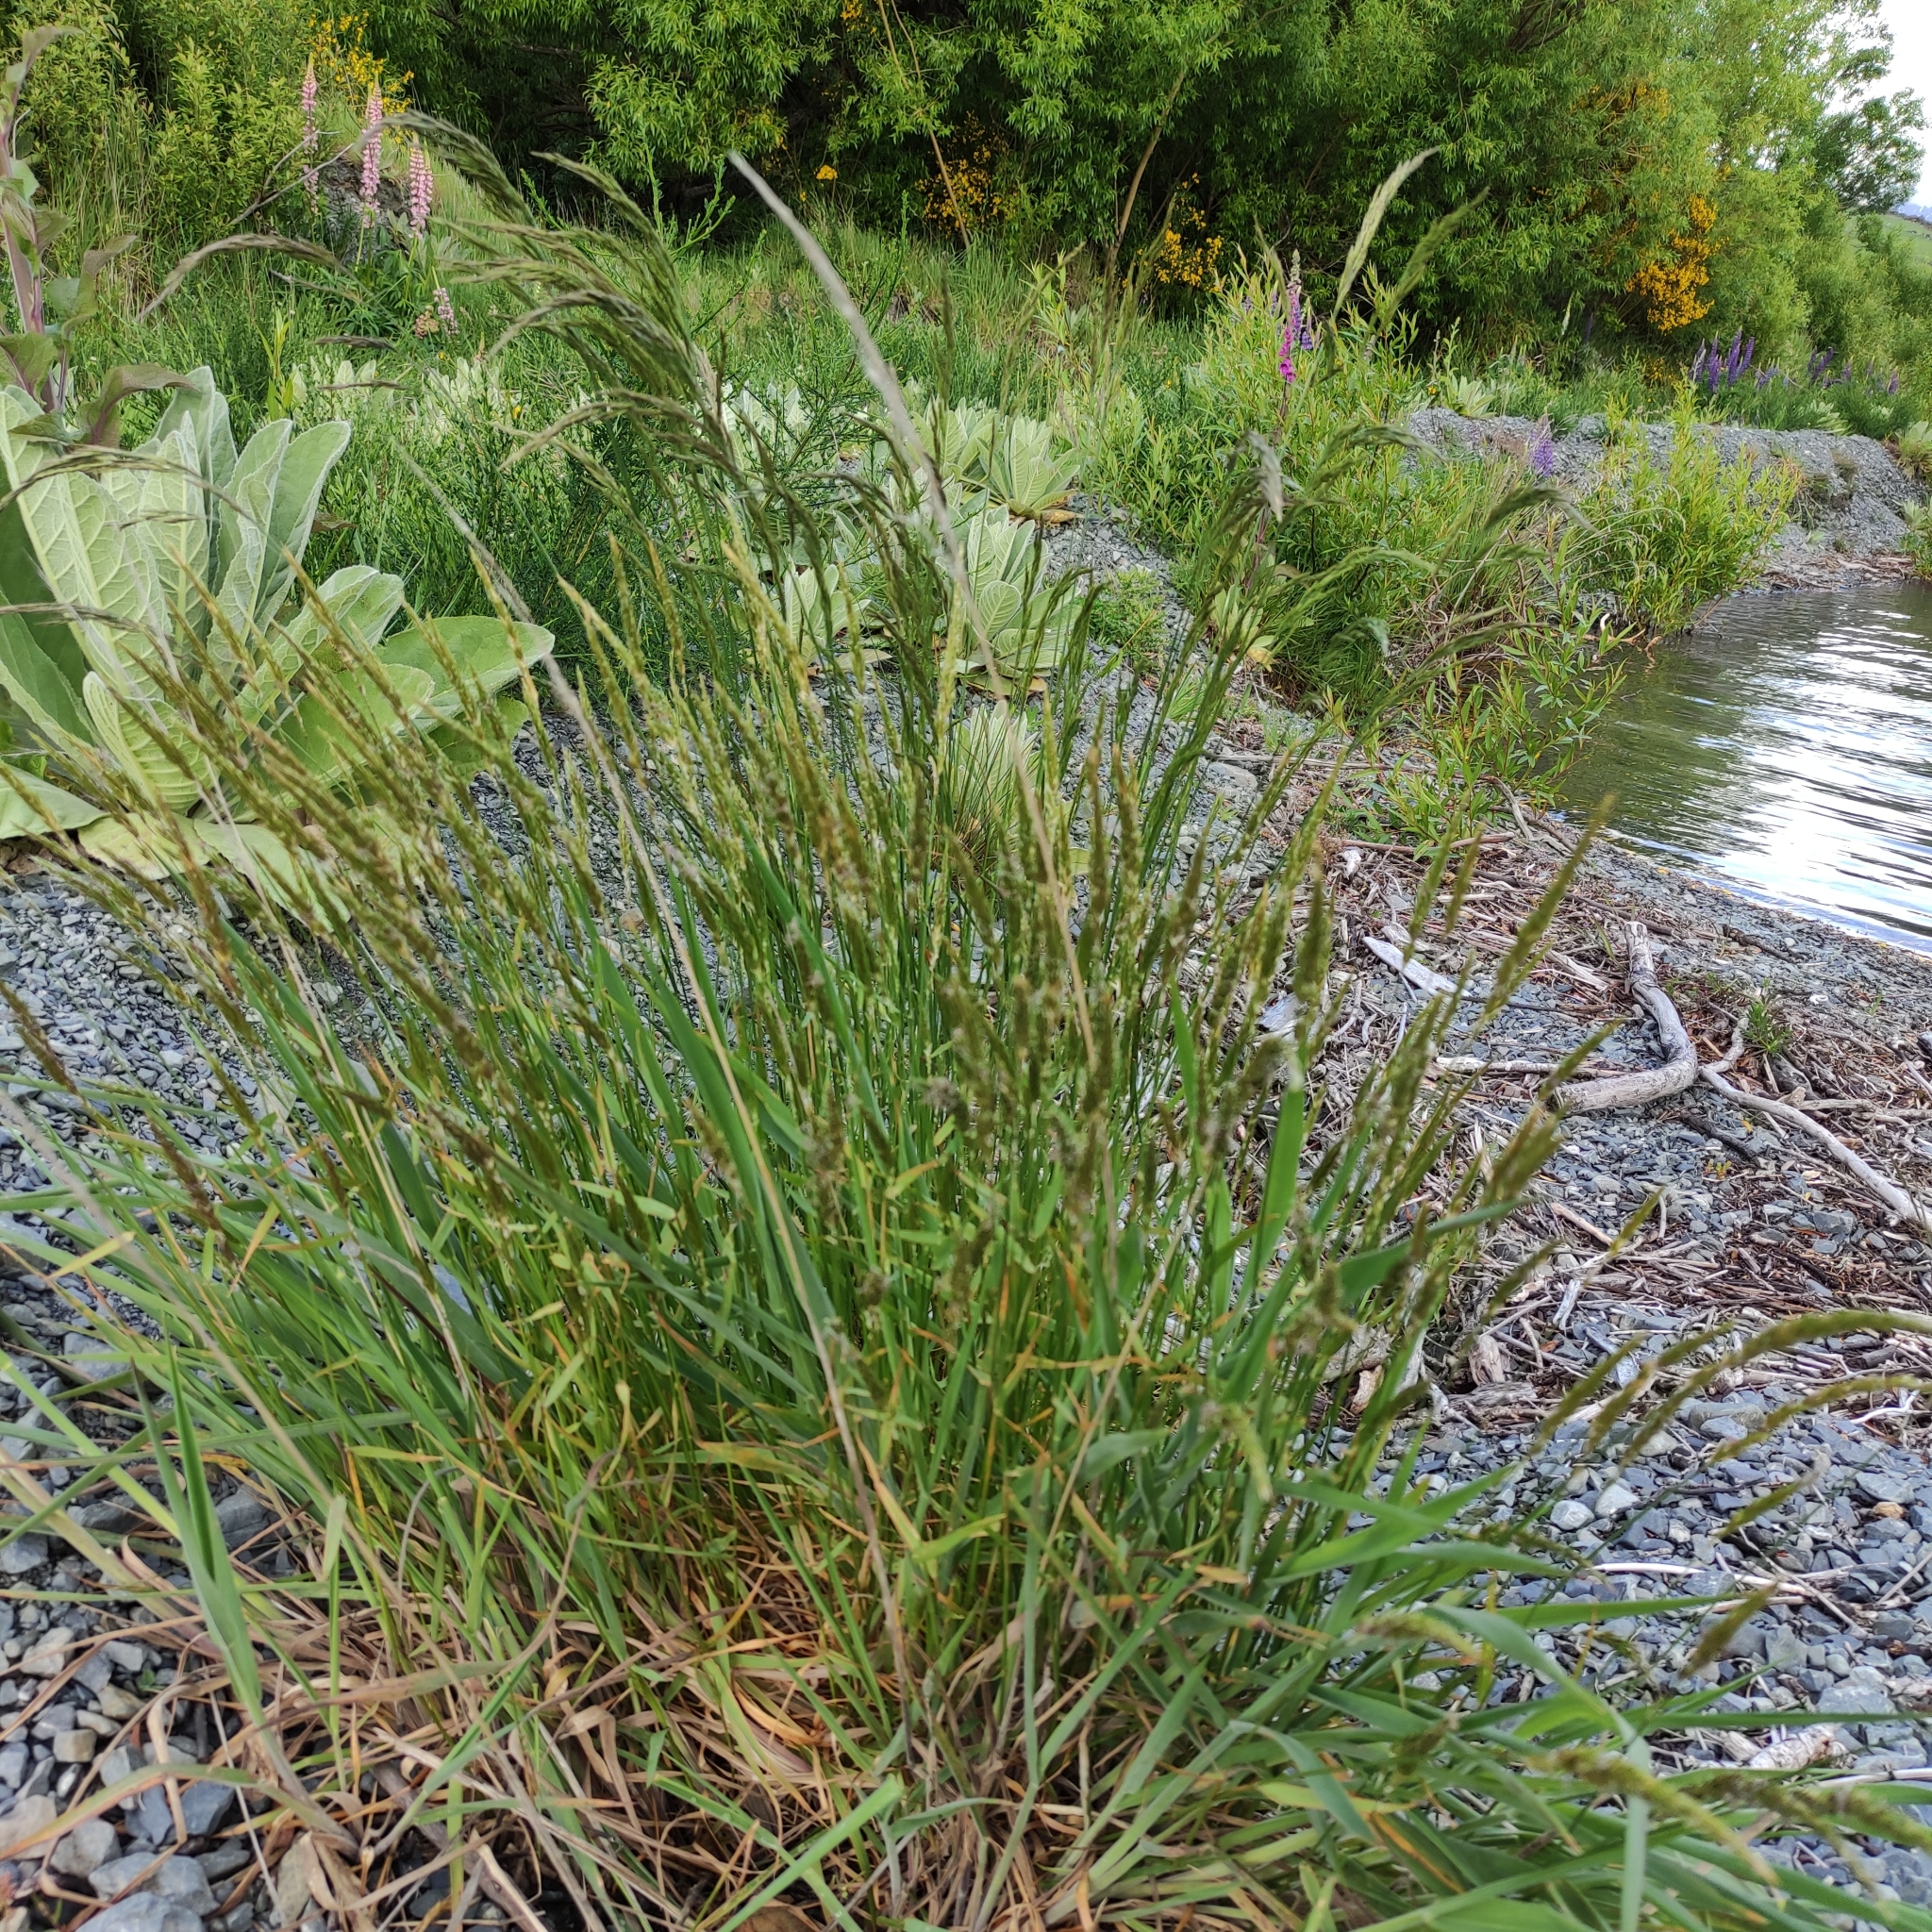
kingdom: Plantae
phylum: Tracheophyta
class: Liliopsida
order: Poales
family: Poaceae
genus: Anthoxanthum
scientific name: Anthoxanthum odoratum
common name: Sweet vernalgrass
